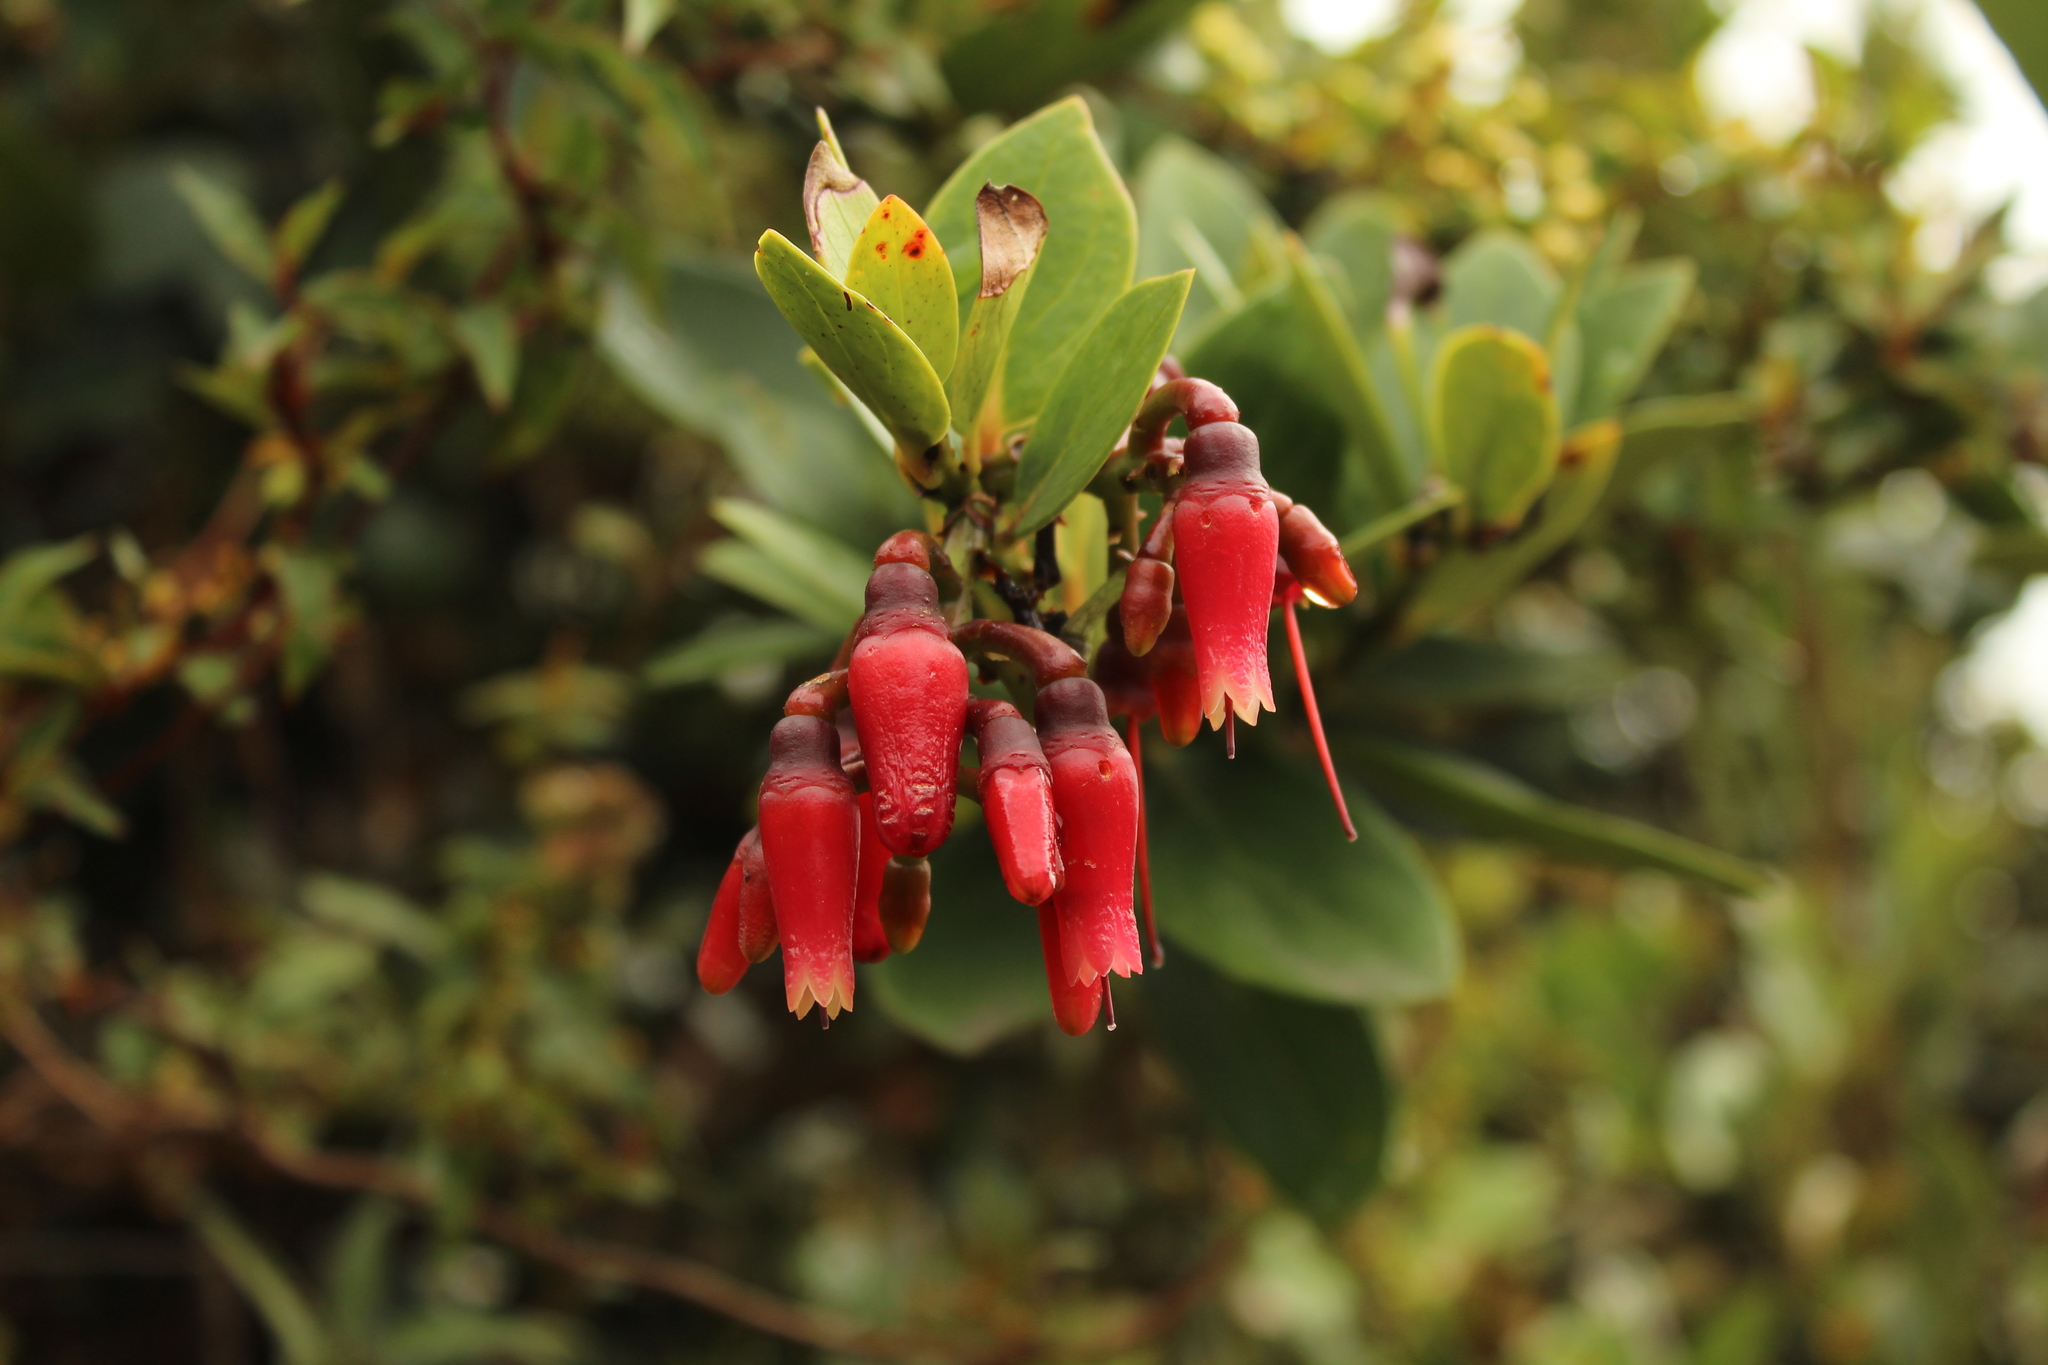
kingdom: Plantae
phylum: Tracheophyta
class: Magnoliopsida
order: Ericales
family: Ericaceae
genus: Macleania
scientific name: Macleania rupestris
